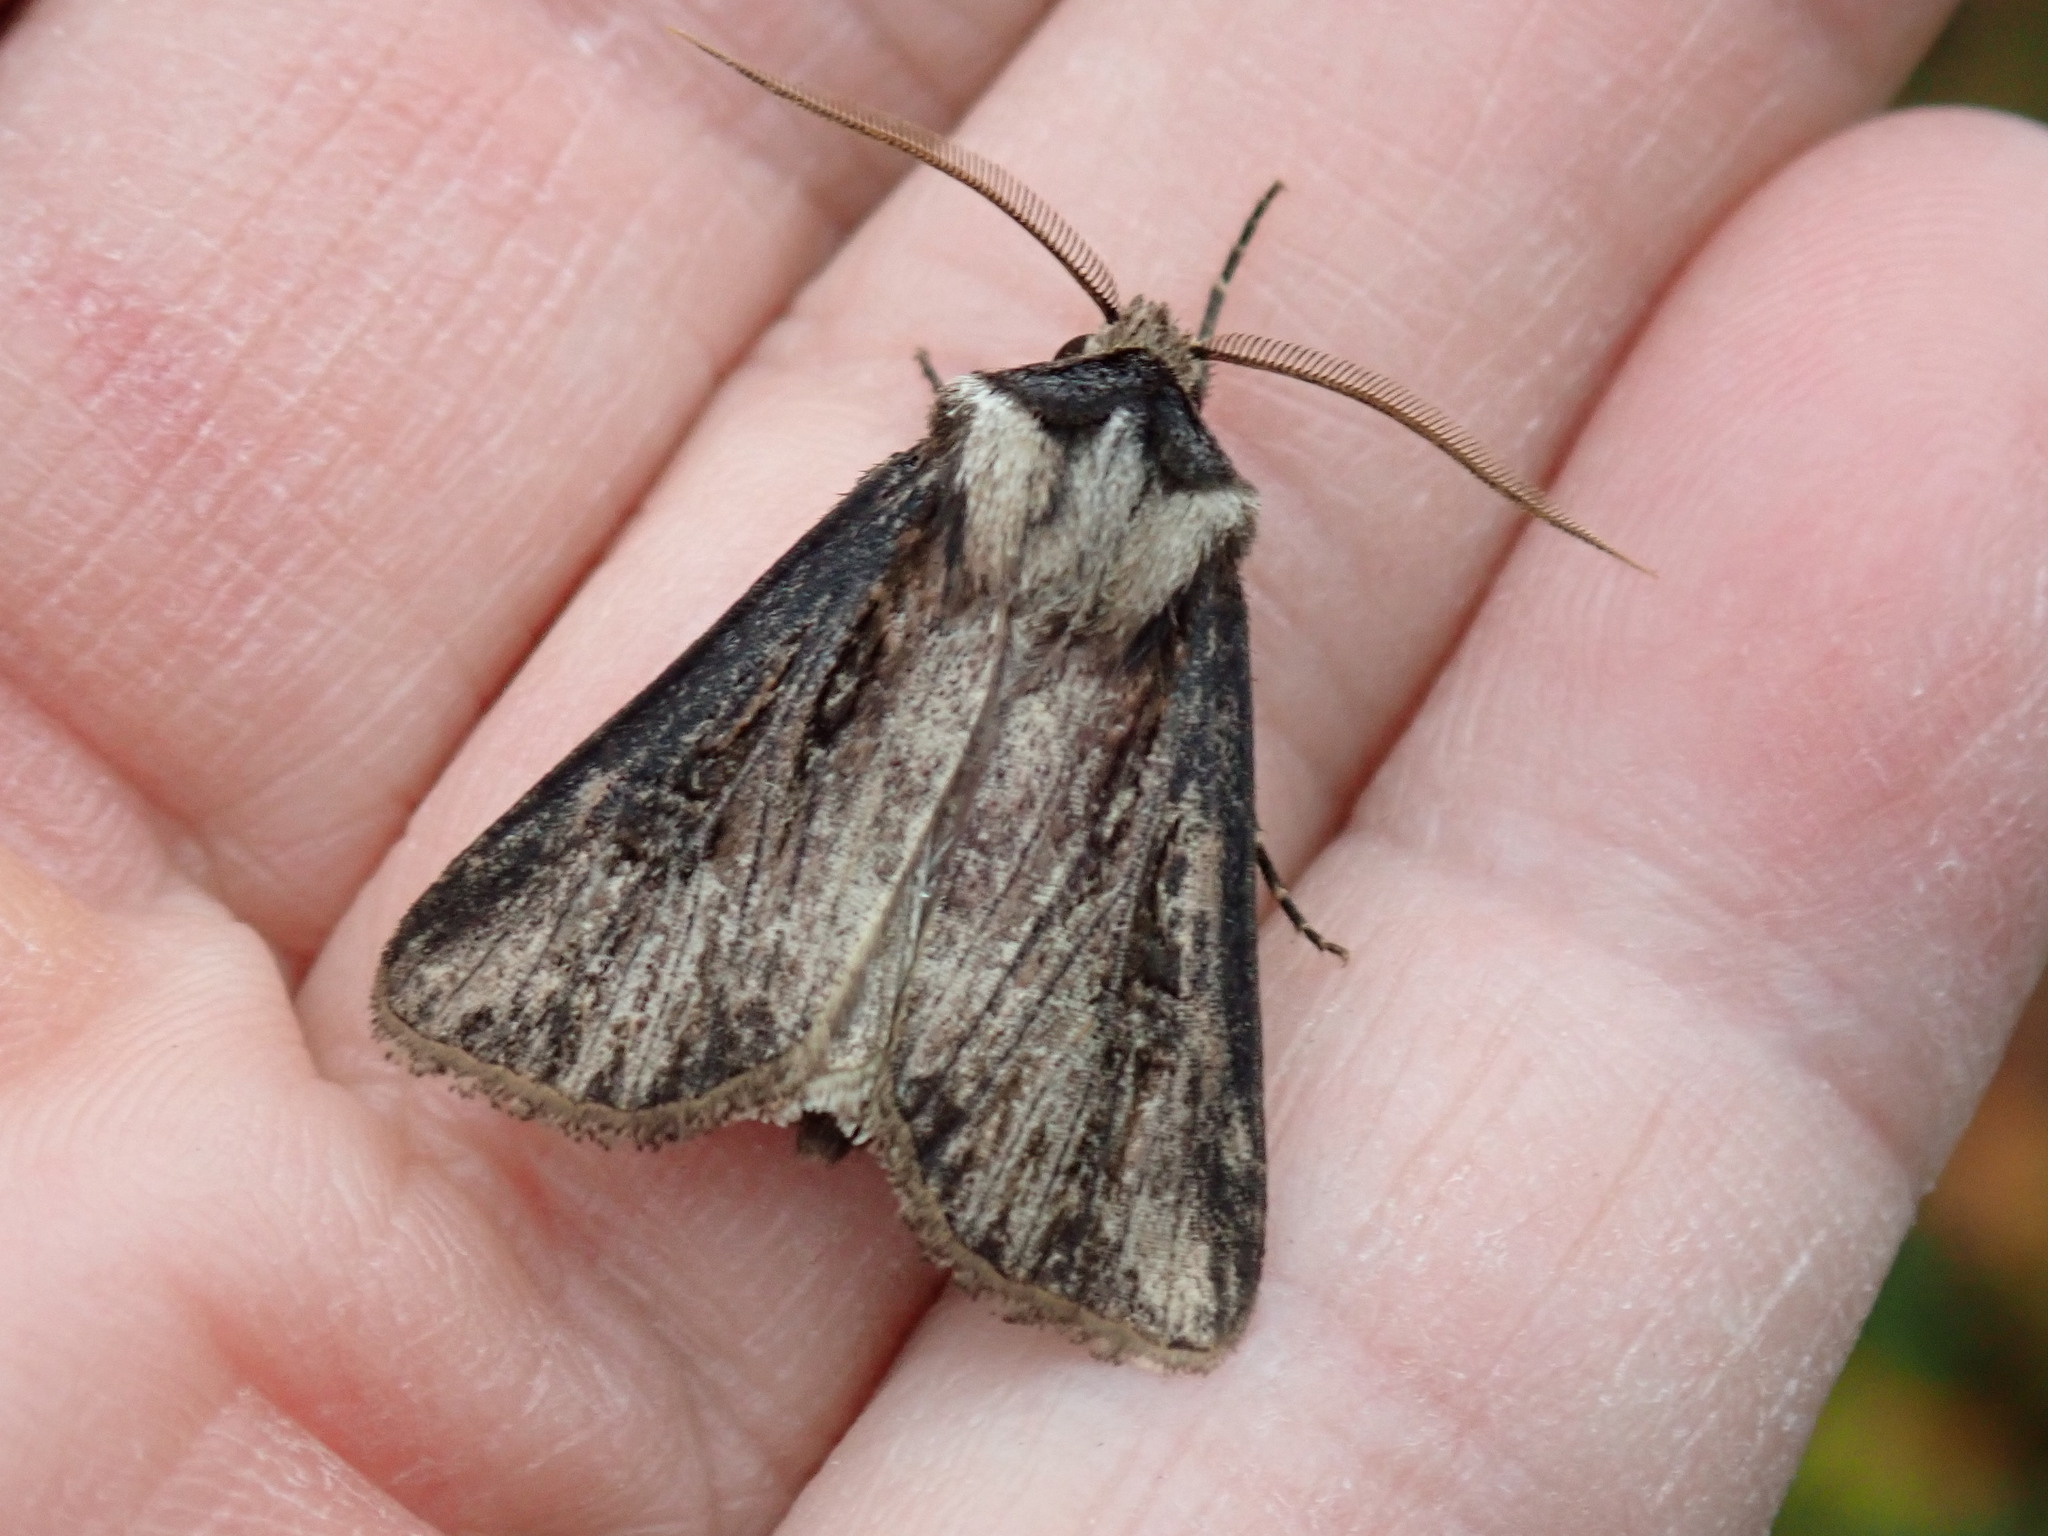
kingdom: Animalia
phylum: Arthropoda
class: Insecta
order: Lepidoptera
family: Noctuidae
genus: Agrotis
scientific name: Agrotis venerabilis
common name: Venerable dart
